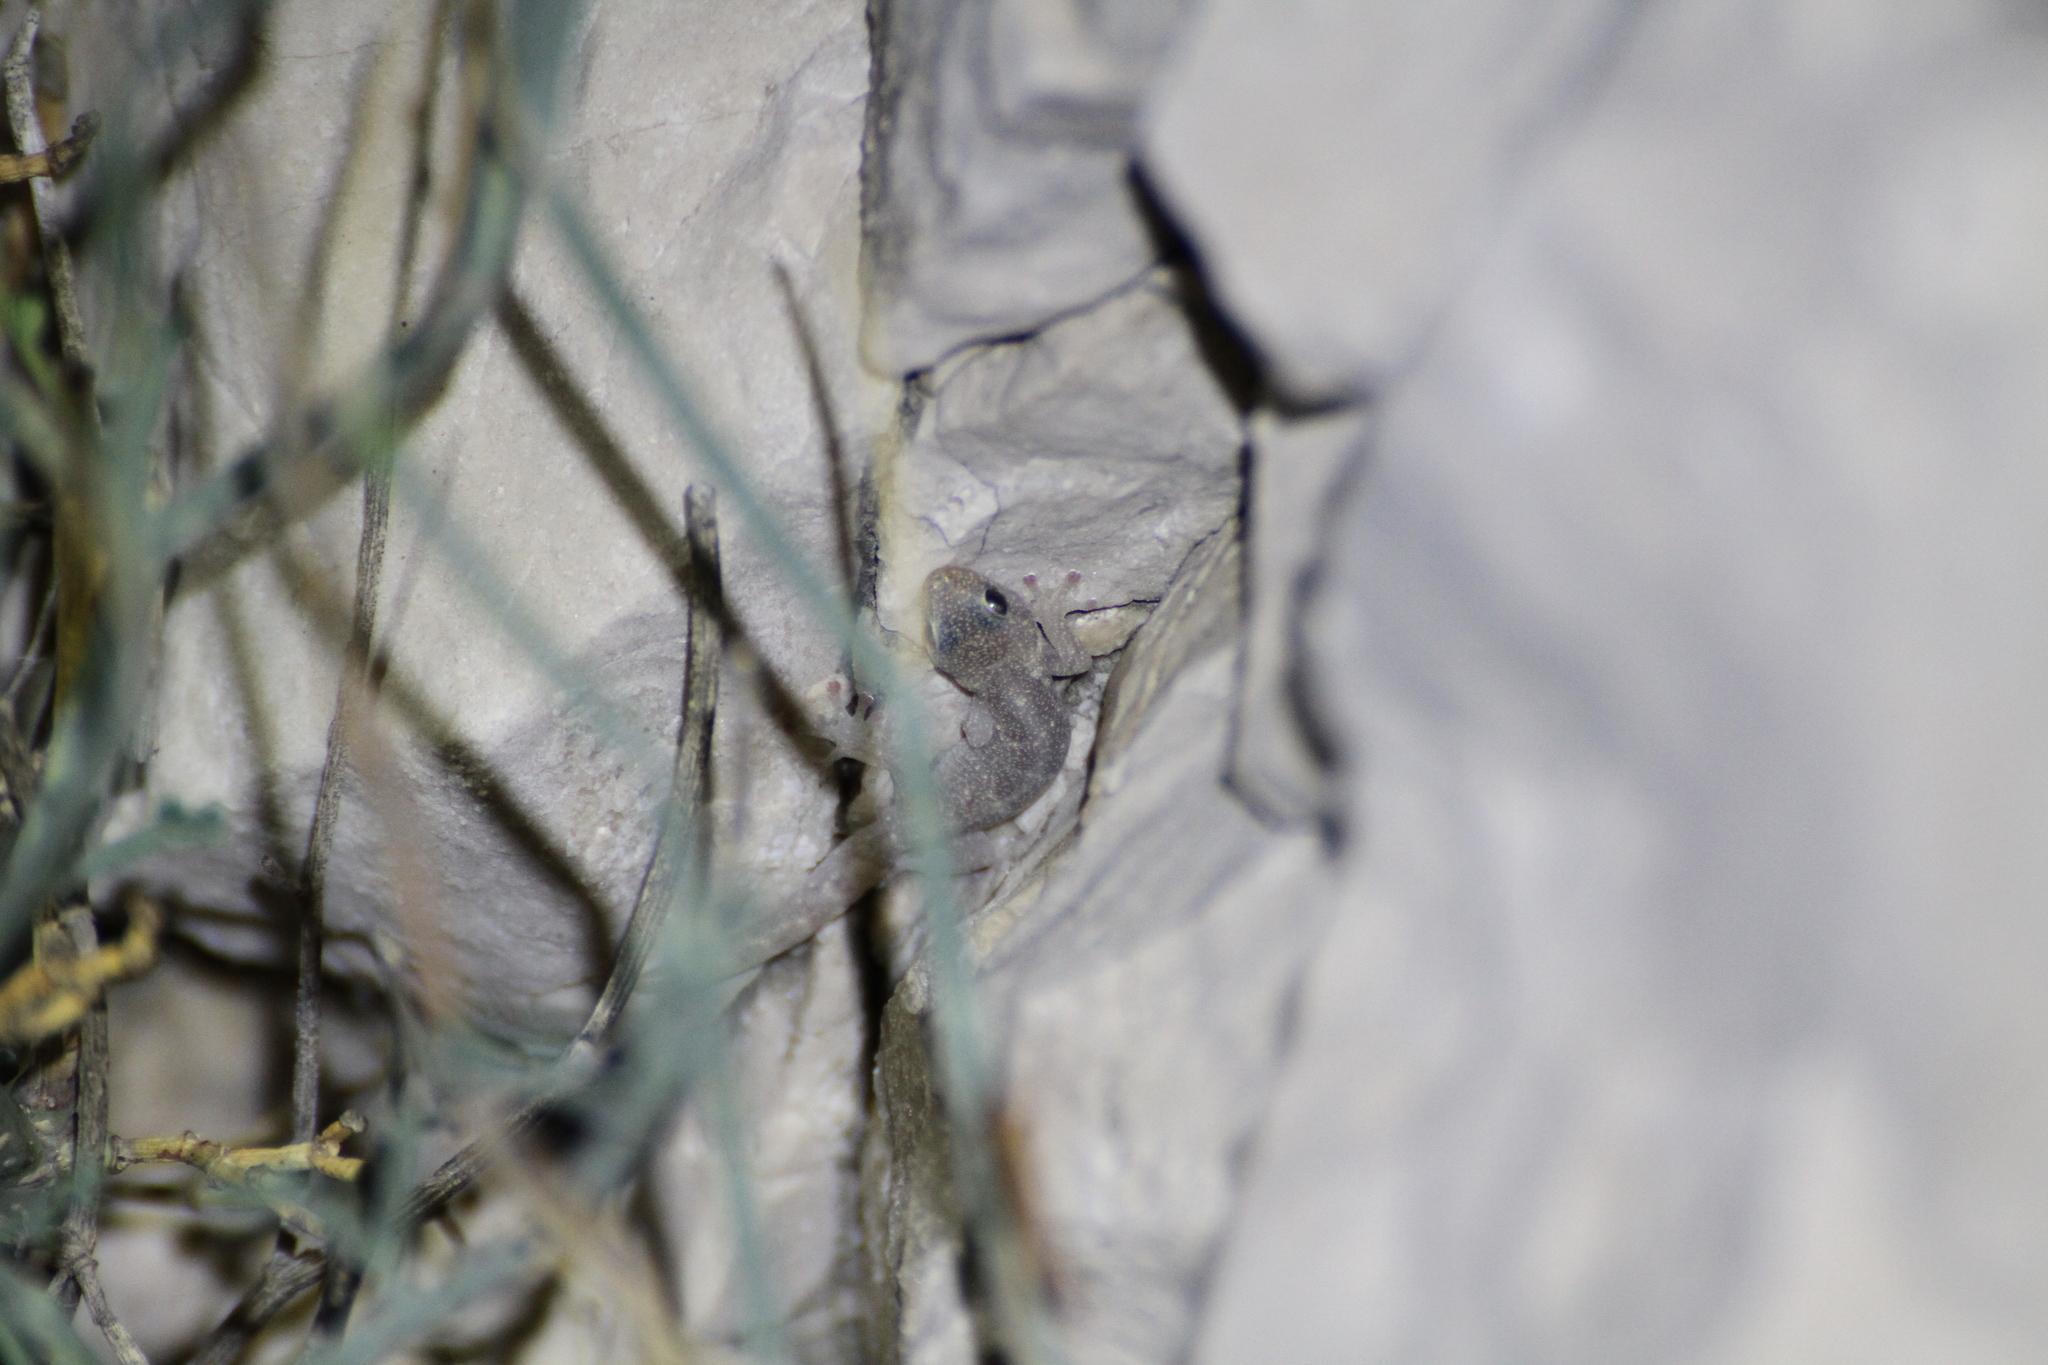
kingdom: Animalia
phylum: Chordata
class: Squamata
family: Sphaerodactylidae
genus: Euleptes
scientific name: Euleptes europaea
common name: English common name not available
